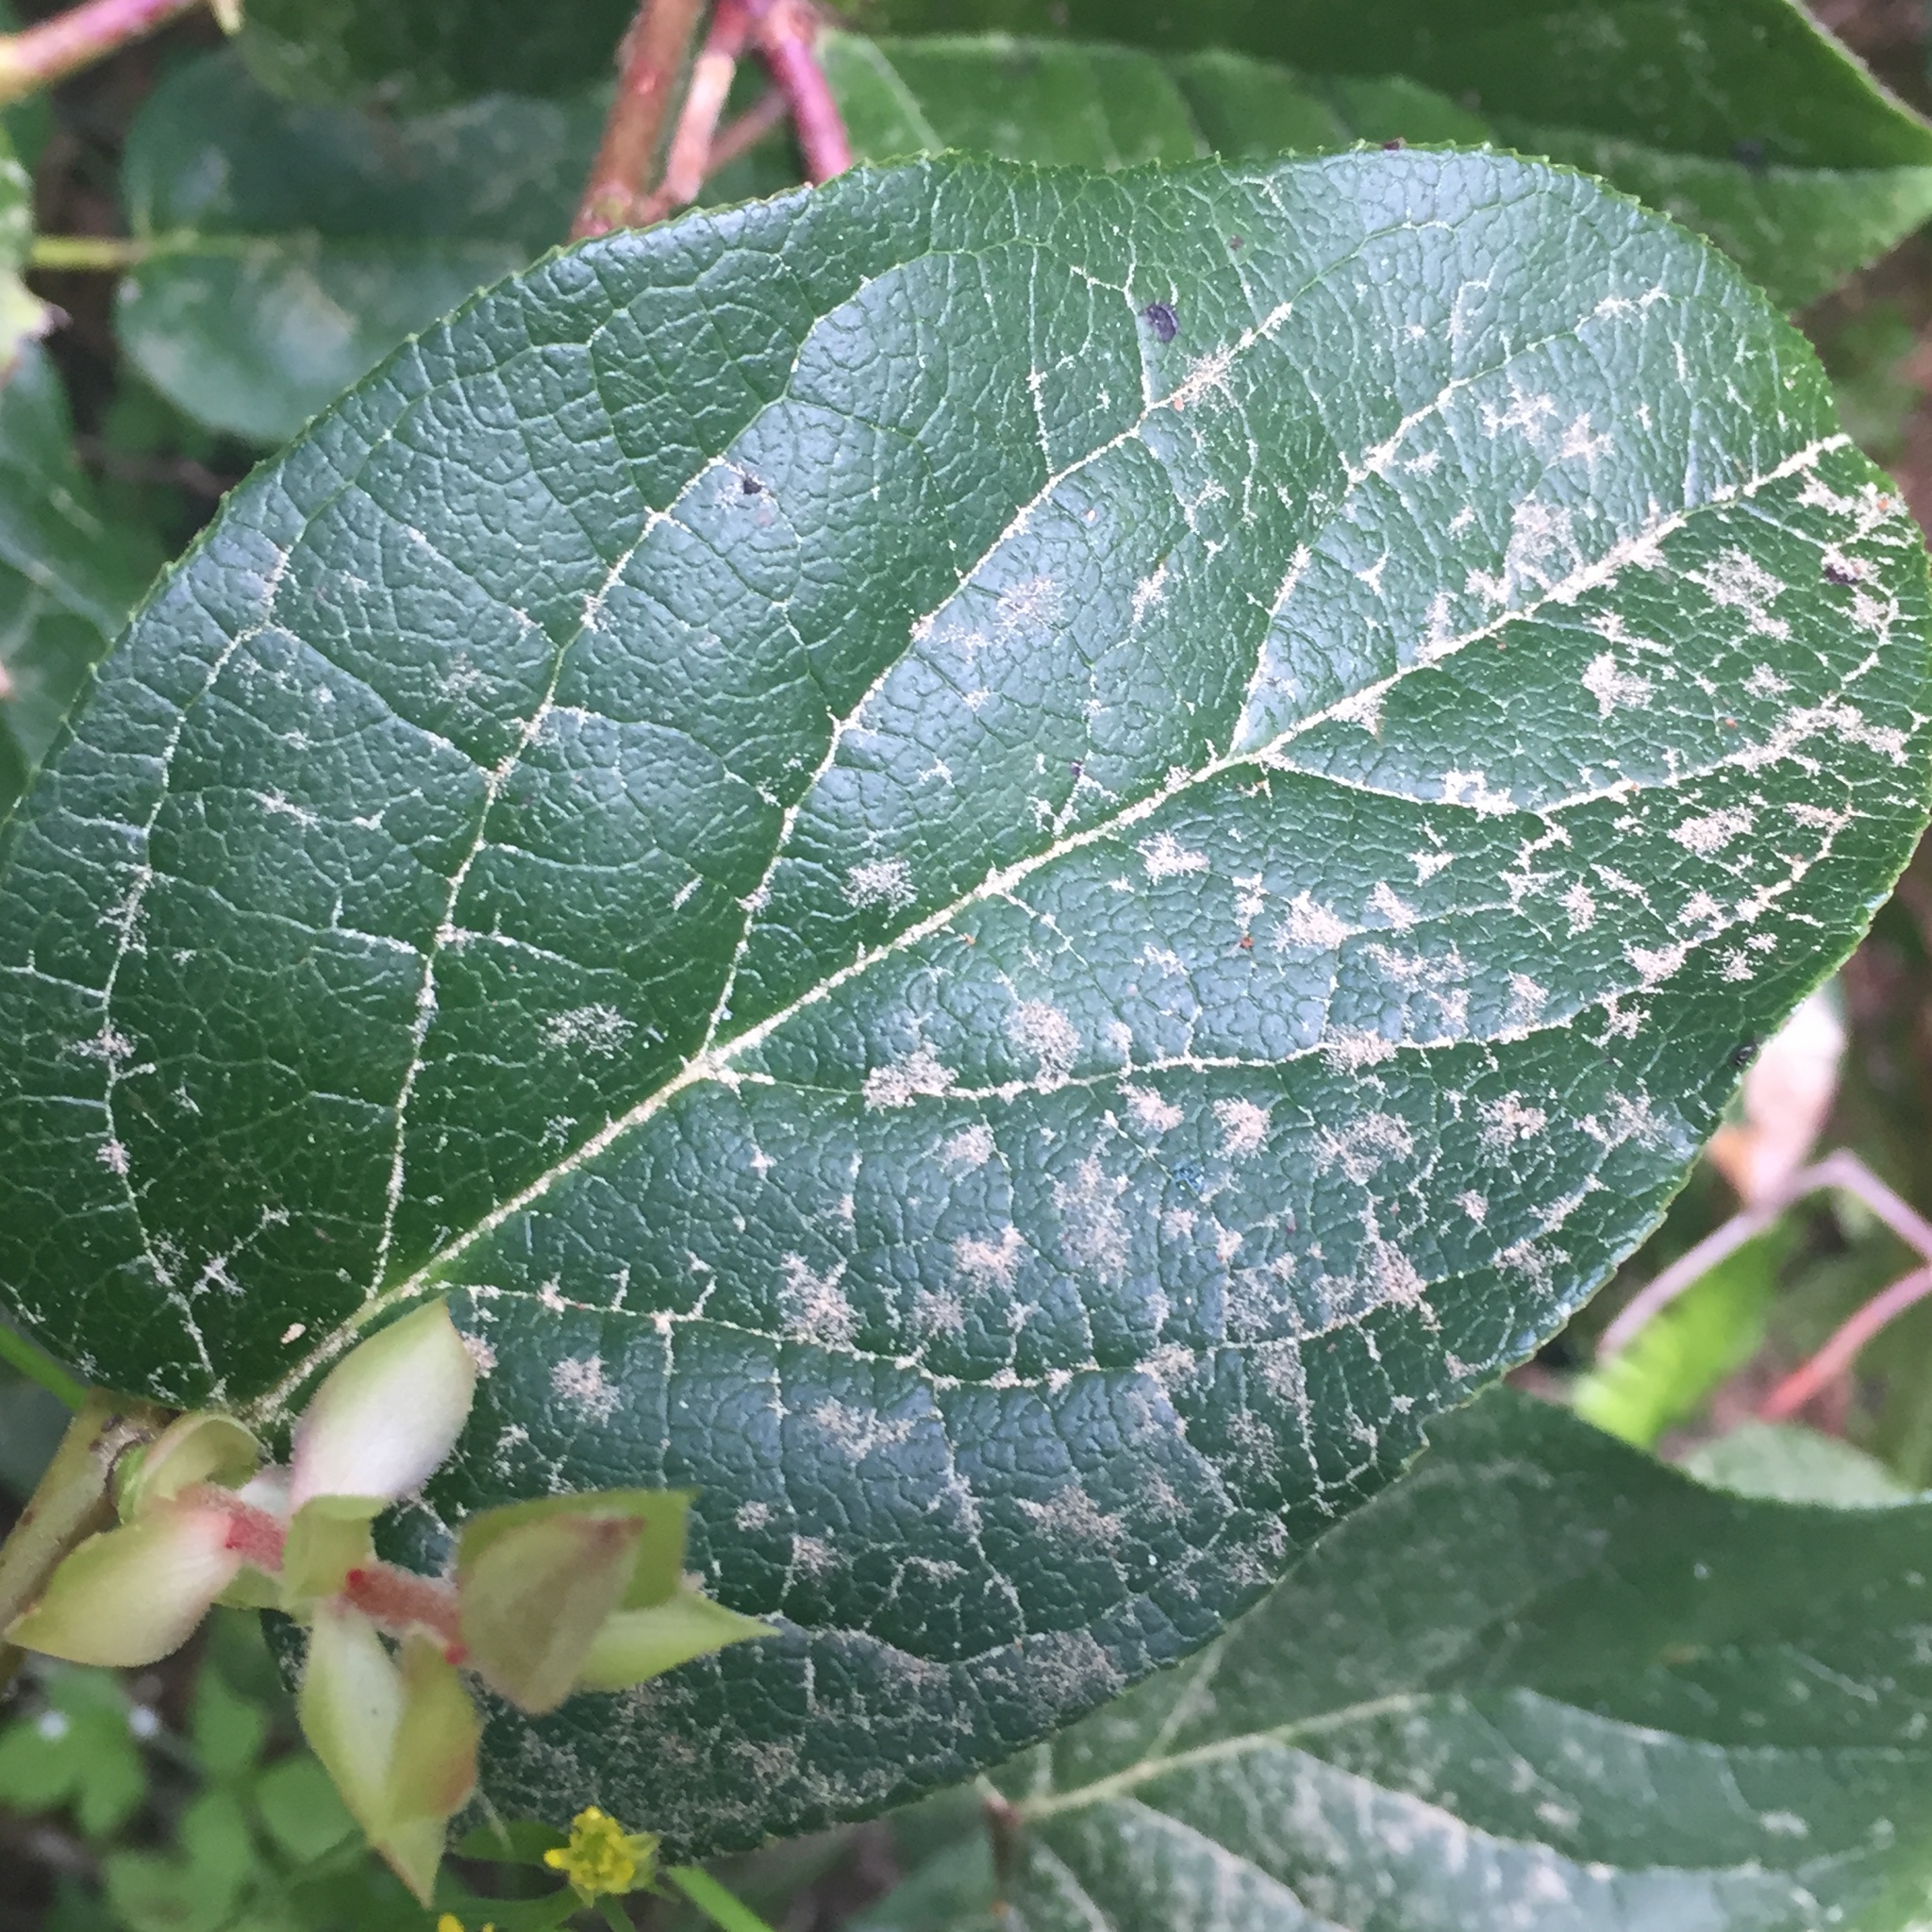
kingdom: Plantae
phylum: Tracheophyta
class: Magnoliopsida
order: Ericales
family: Ericaceae
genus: Gaultheria
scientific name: Gaultheria shallon
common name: Shallon
